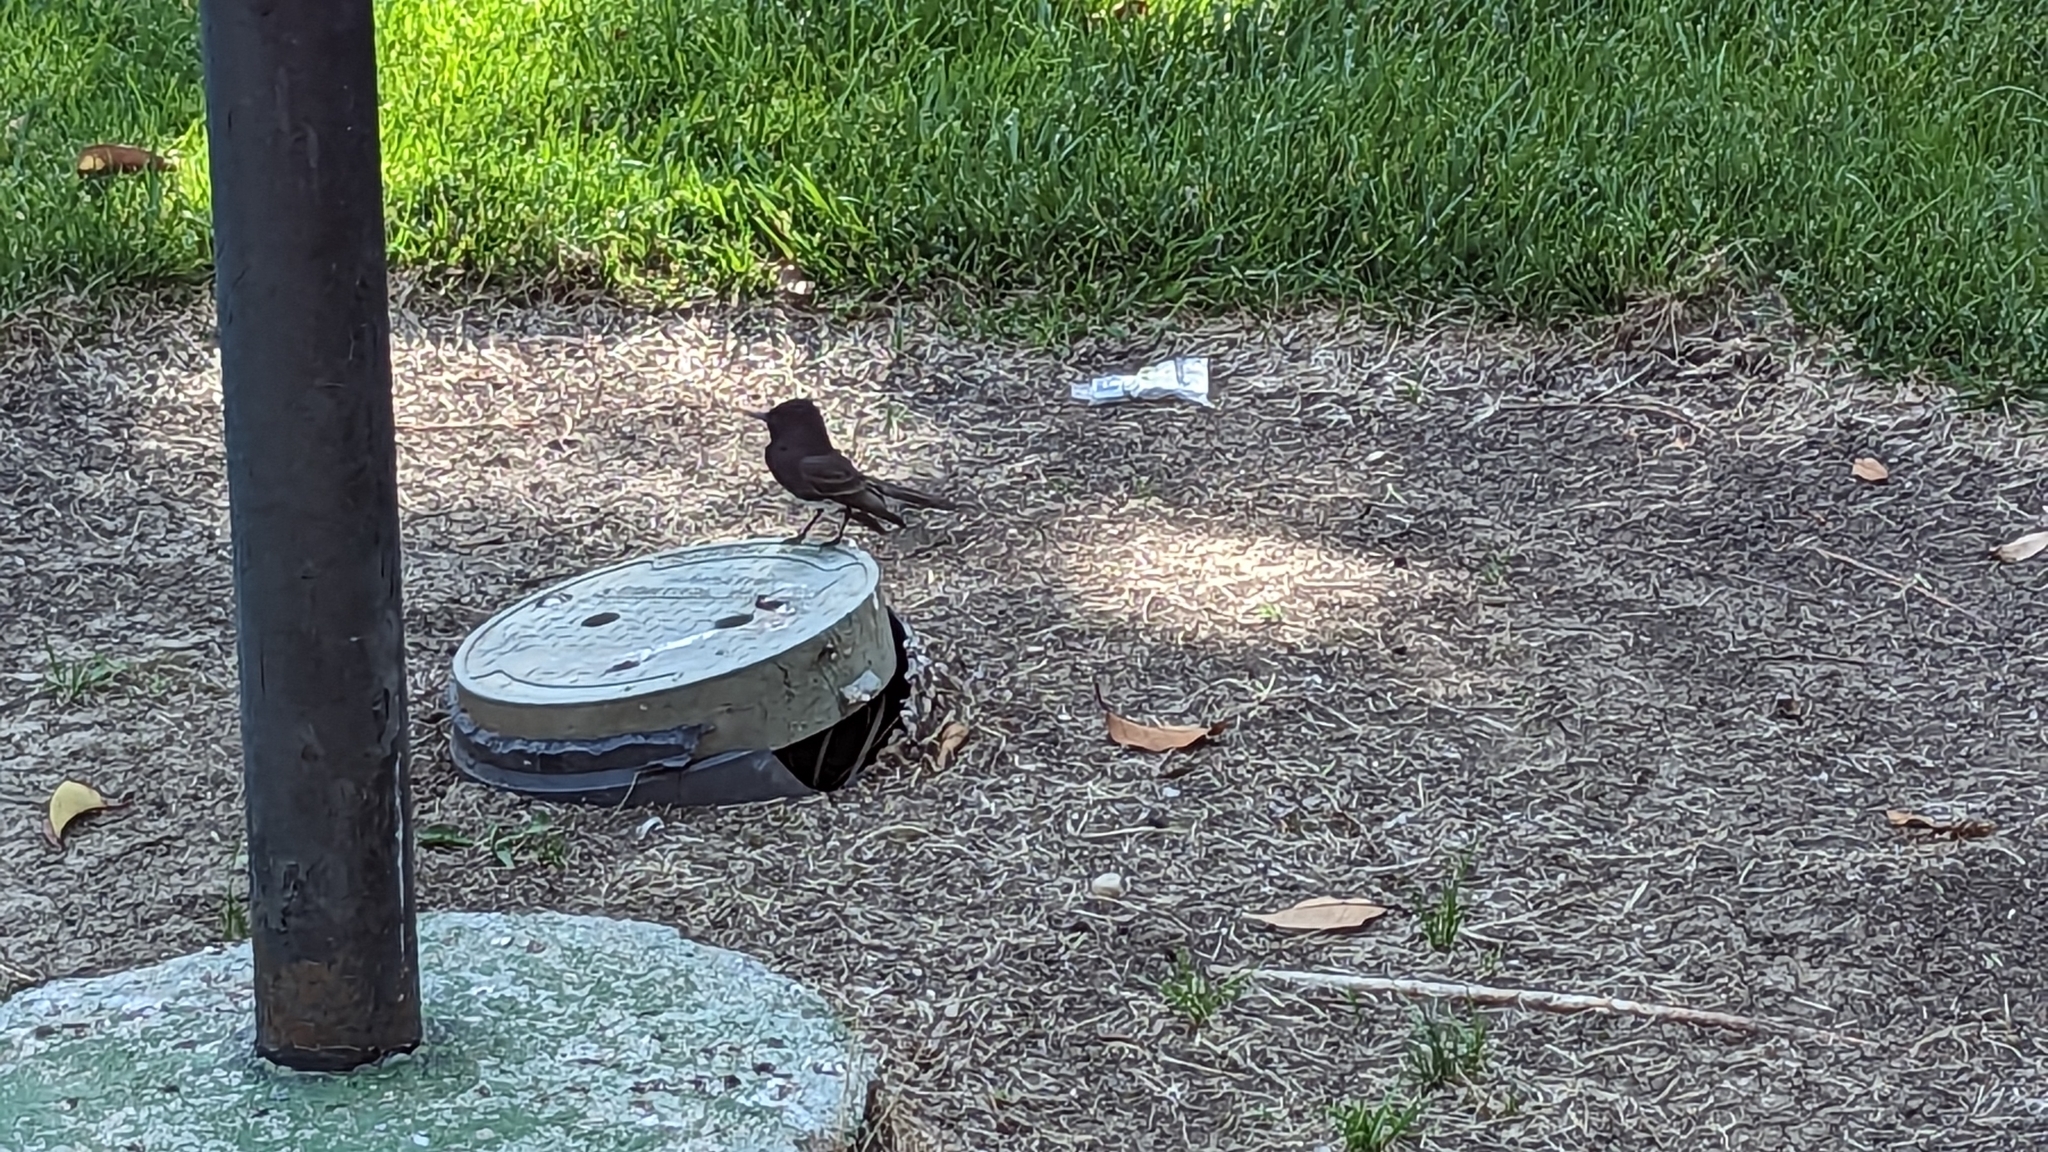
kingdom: Animalia
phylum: Chordata
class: Aves
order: Passeriformes
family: Tyrannidae
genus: Sayornis
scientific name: Sayornis nigricans
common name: Black phoebe
